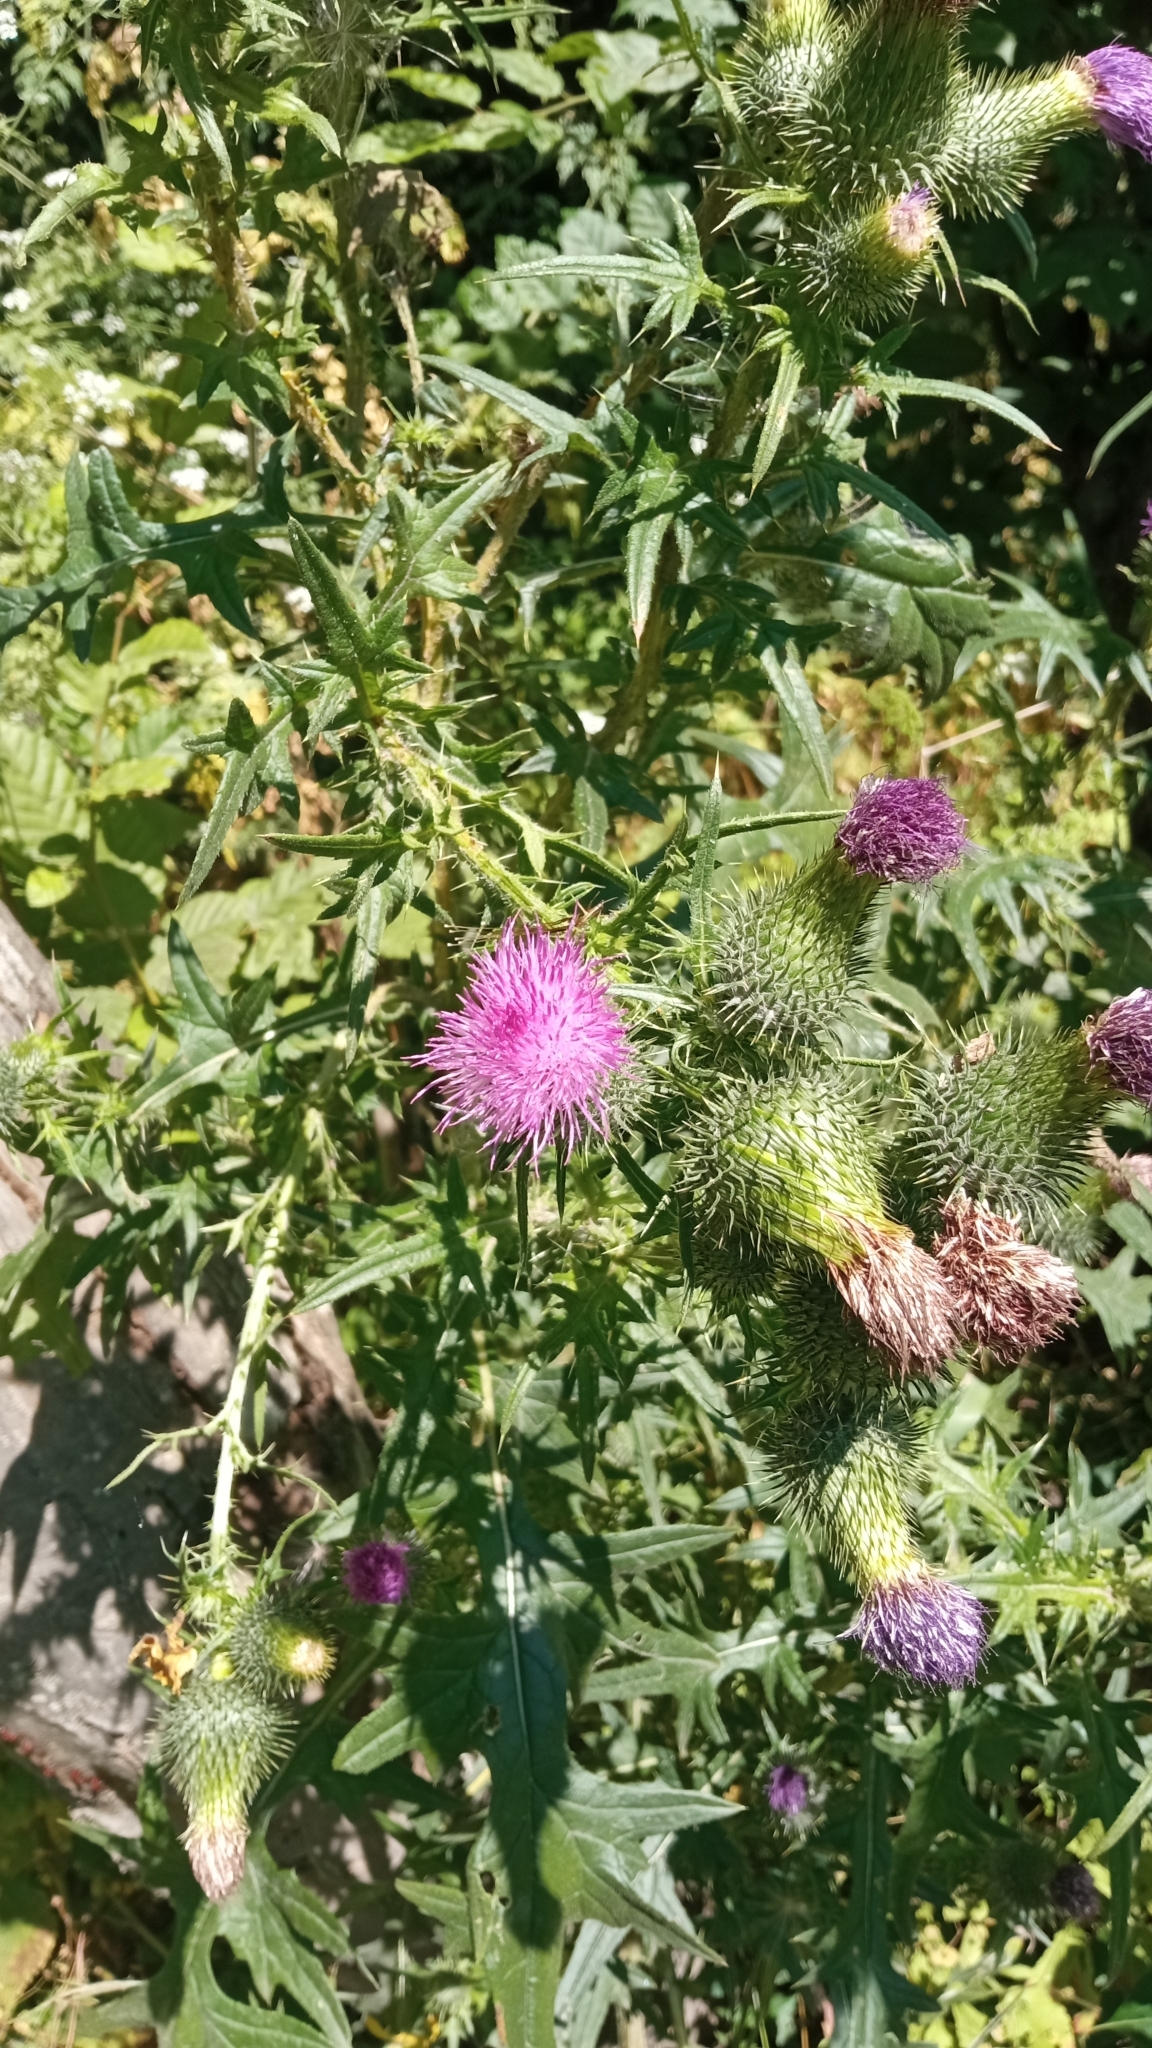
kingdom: Plantae
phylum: Tracheophyta
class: Magnoliopsida
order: Asterales
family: Asteraceae
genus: Cirsium
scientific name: Cirsium vulgare
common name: Bull thistle
